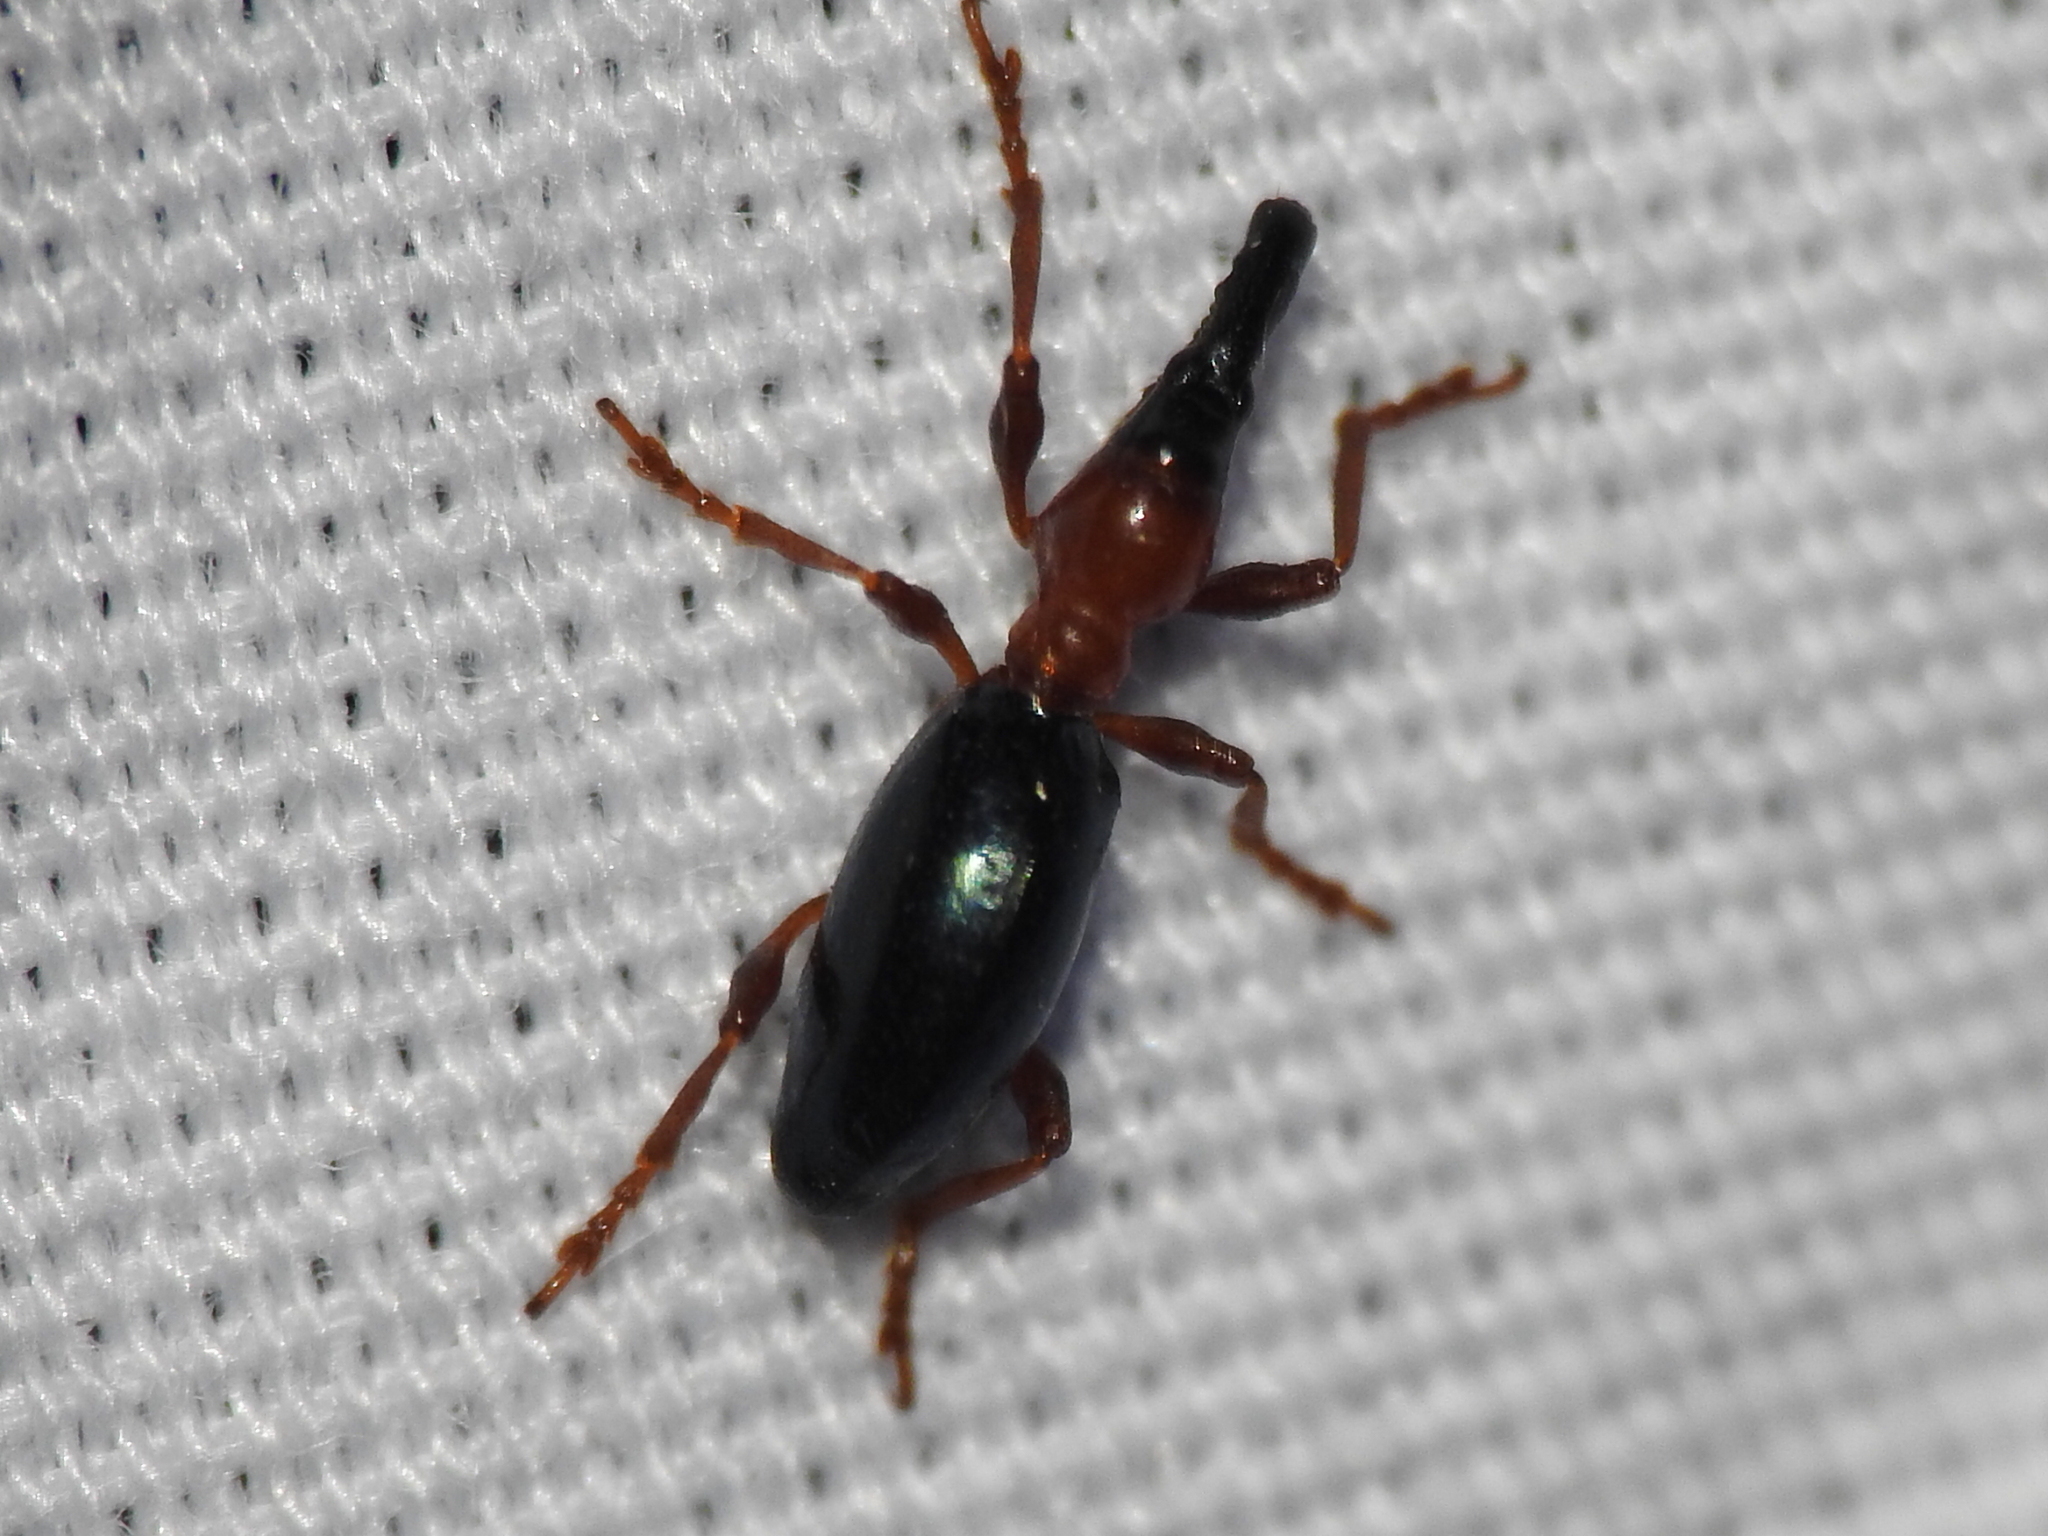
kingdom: Animalia
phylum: Arthropoda
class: Insecta
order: Coleoptera
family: Brentidae
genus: Cylas
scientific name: Cylas formicarius
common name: Sweetpotato weevil
